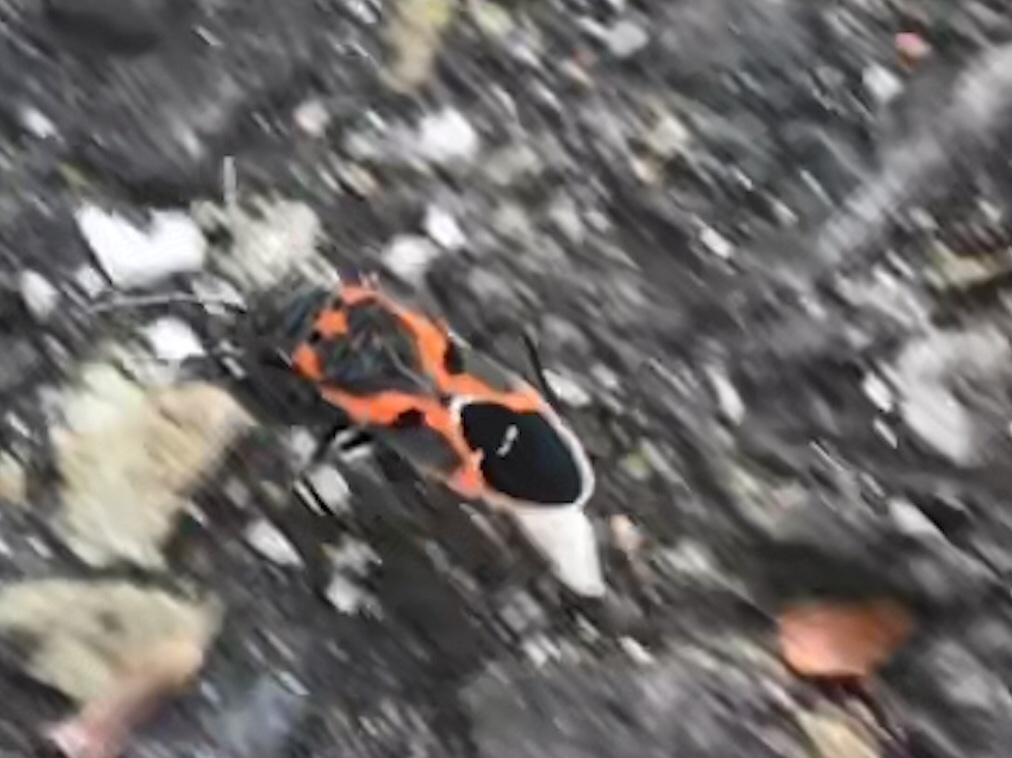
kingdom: Animalia
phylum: Arthropoda
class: Insecta
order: Hemiptera
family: Lygaeidae
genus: Lygaeus
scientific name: Lygaeus kalmii
